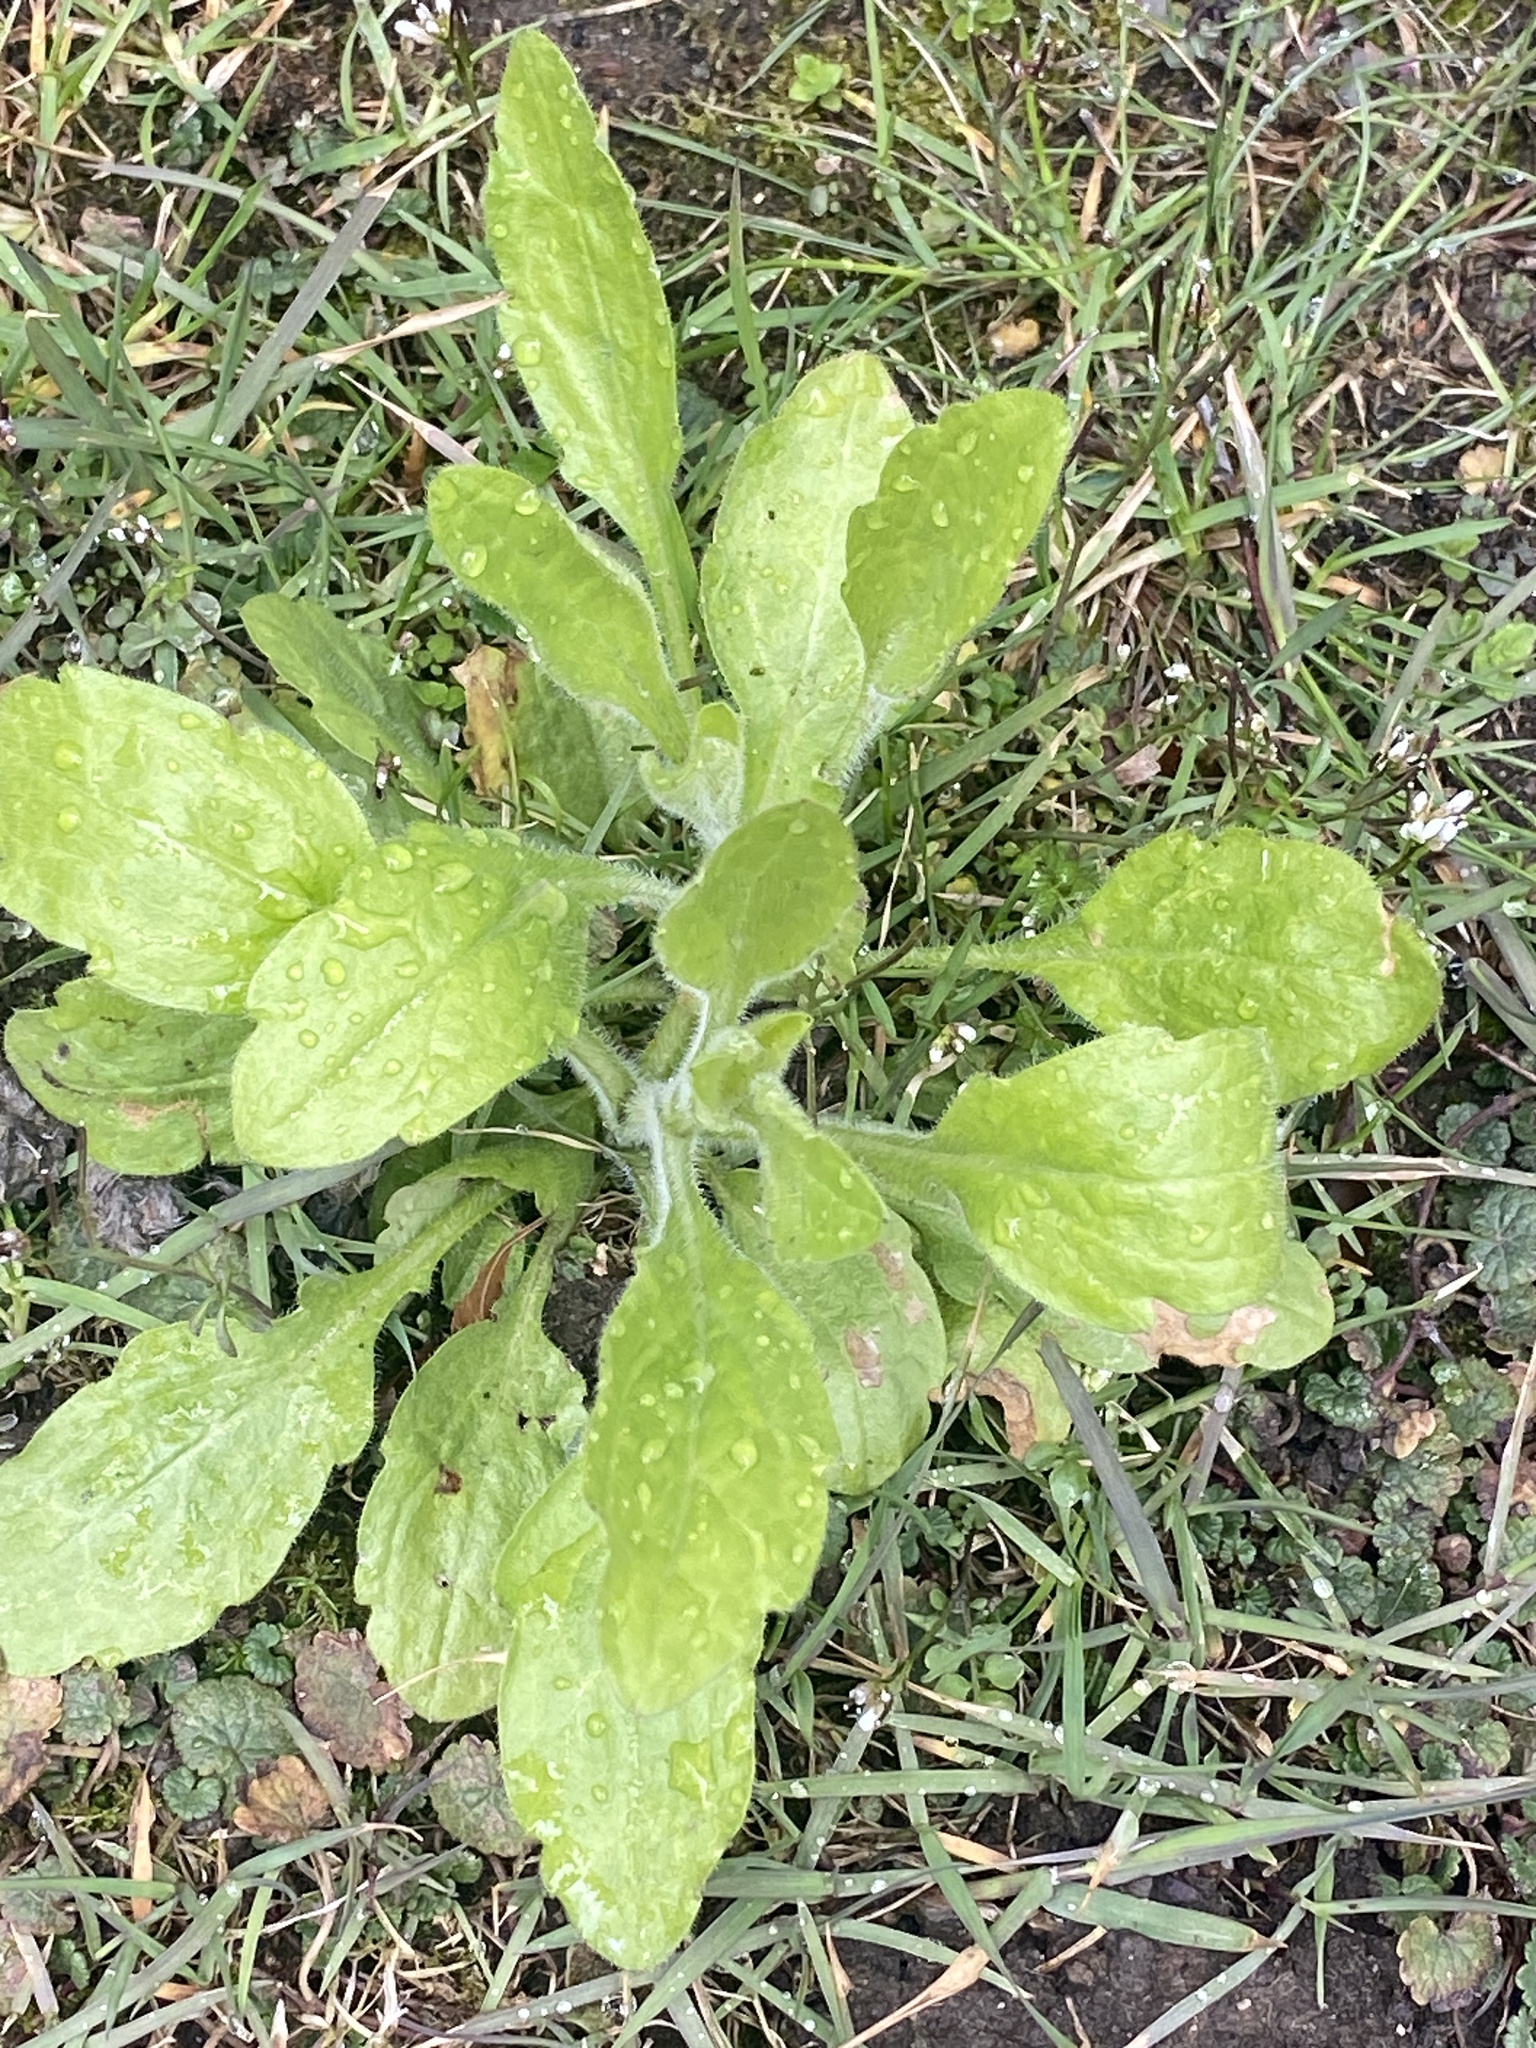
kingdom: Plantae
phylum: Tracheophyta
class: Magnoliopsida
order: Asterales
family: Asteraceae
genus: Erigeron
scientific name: Erigeron annuus
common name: Tall fleabane
